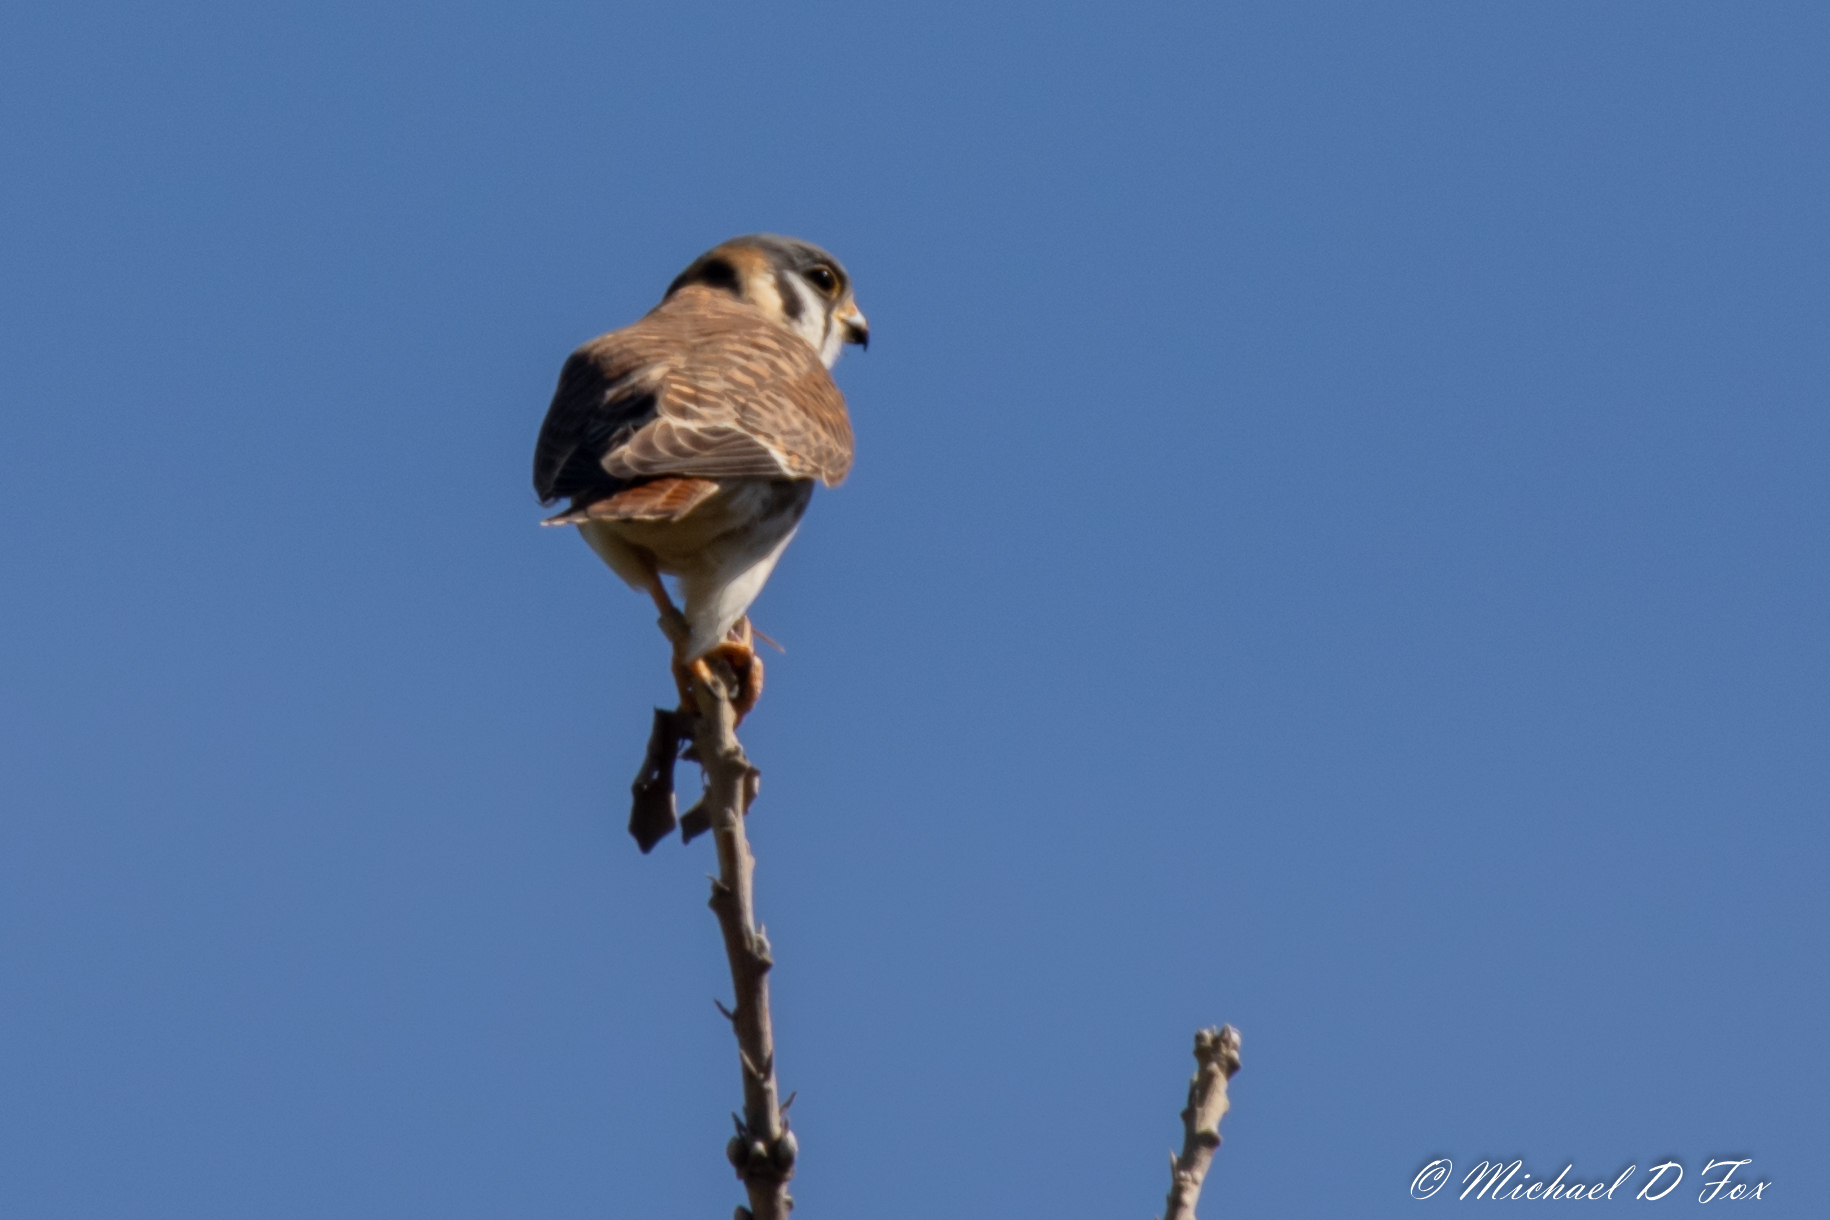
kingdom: Animalia
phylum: Chordata
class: Aves
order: Falconiformes
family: Falconidae
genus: Falco
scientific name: Falco sparverius
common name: American kestrel
